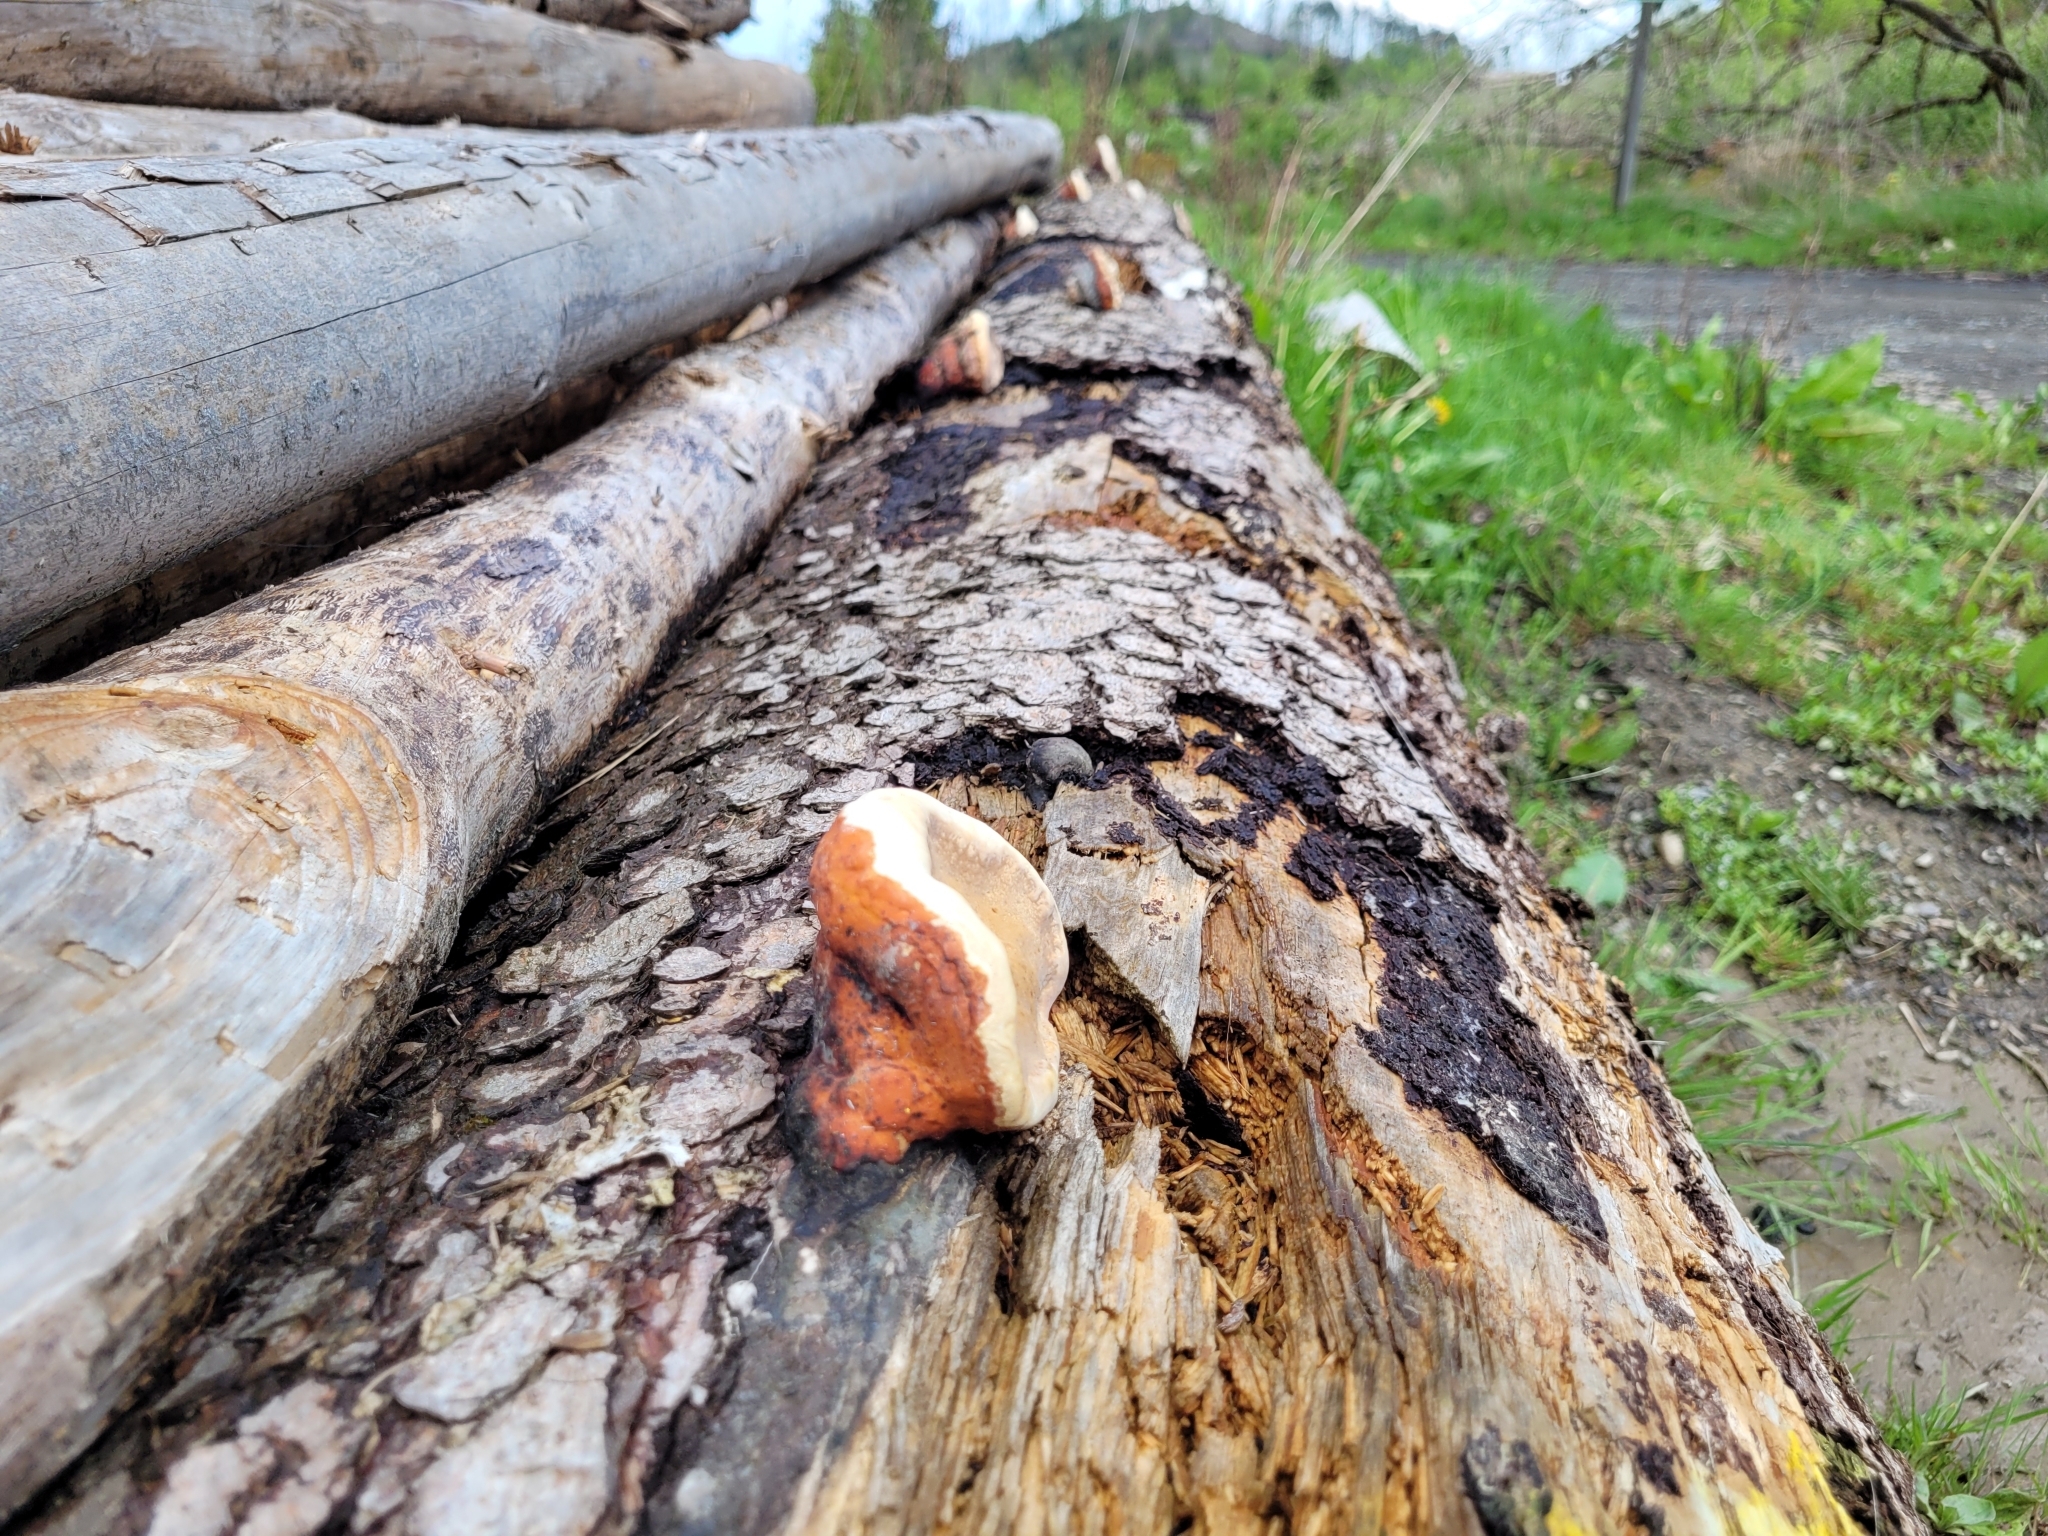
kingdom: Fungi
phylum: Basidiomycota
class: Agaricomycetes
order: Polyporales
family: Fomitopsidaceae
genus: Fomitopsis
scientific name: Fomitopsis pinicola
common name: Red-belted bracket
